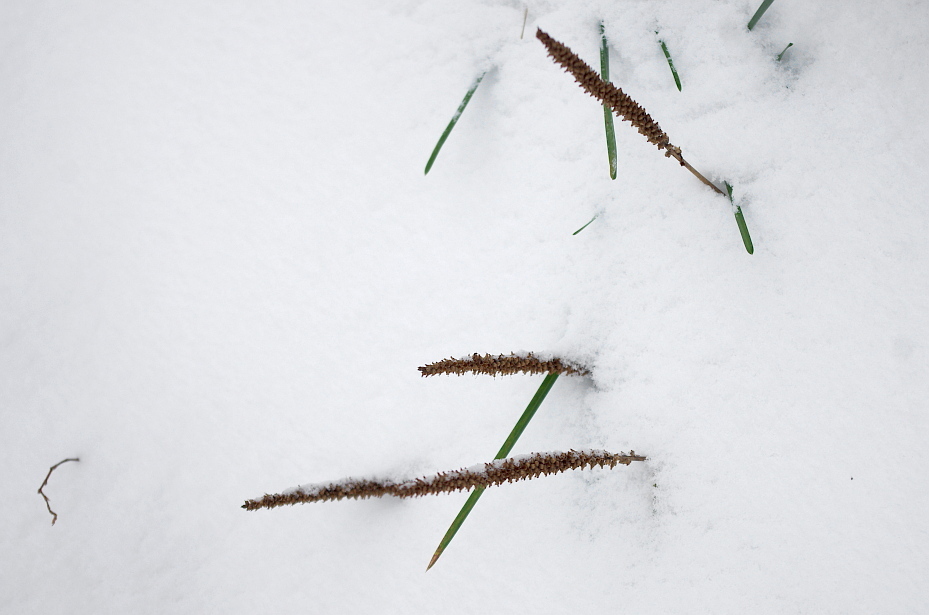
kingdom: Plantae
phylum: Tracheophyta
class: Magnoliopsida
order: Lamiales
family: Plantaginaceae
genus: Plantago
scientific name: Plantago major
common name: Common plantain
